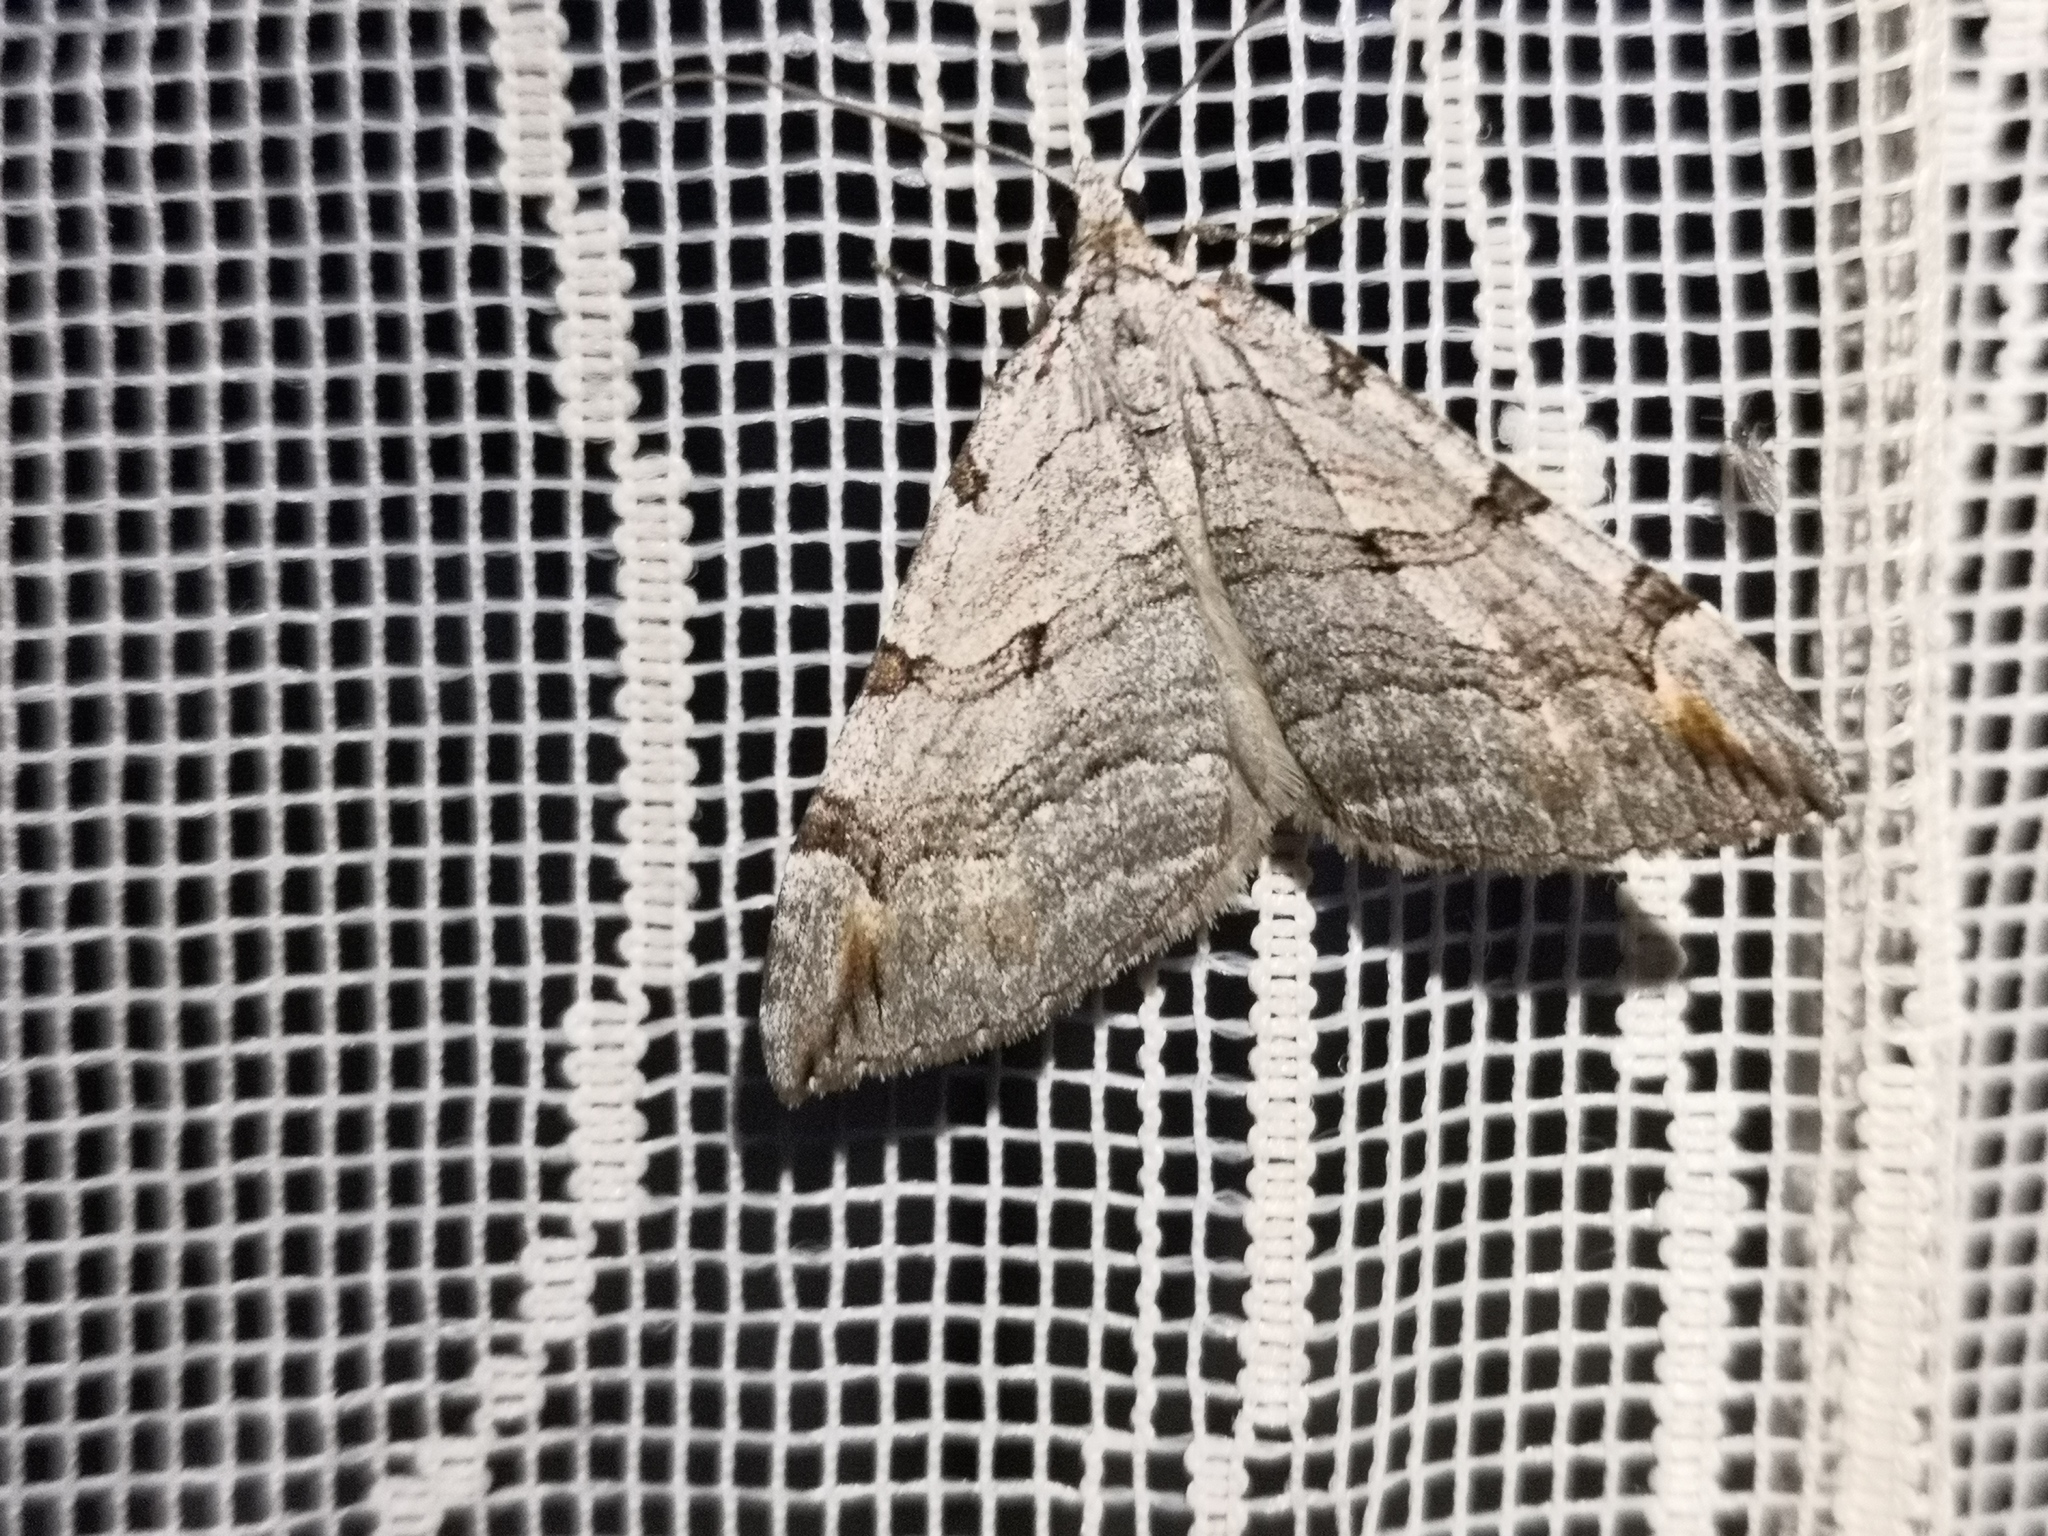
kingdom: Animalia
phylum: Arthropoda
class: Insecta
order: Lepidoptera
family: Geometridae
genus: Aplocera
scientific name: Aplocera plagiata
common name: Treble-bar
